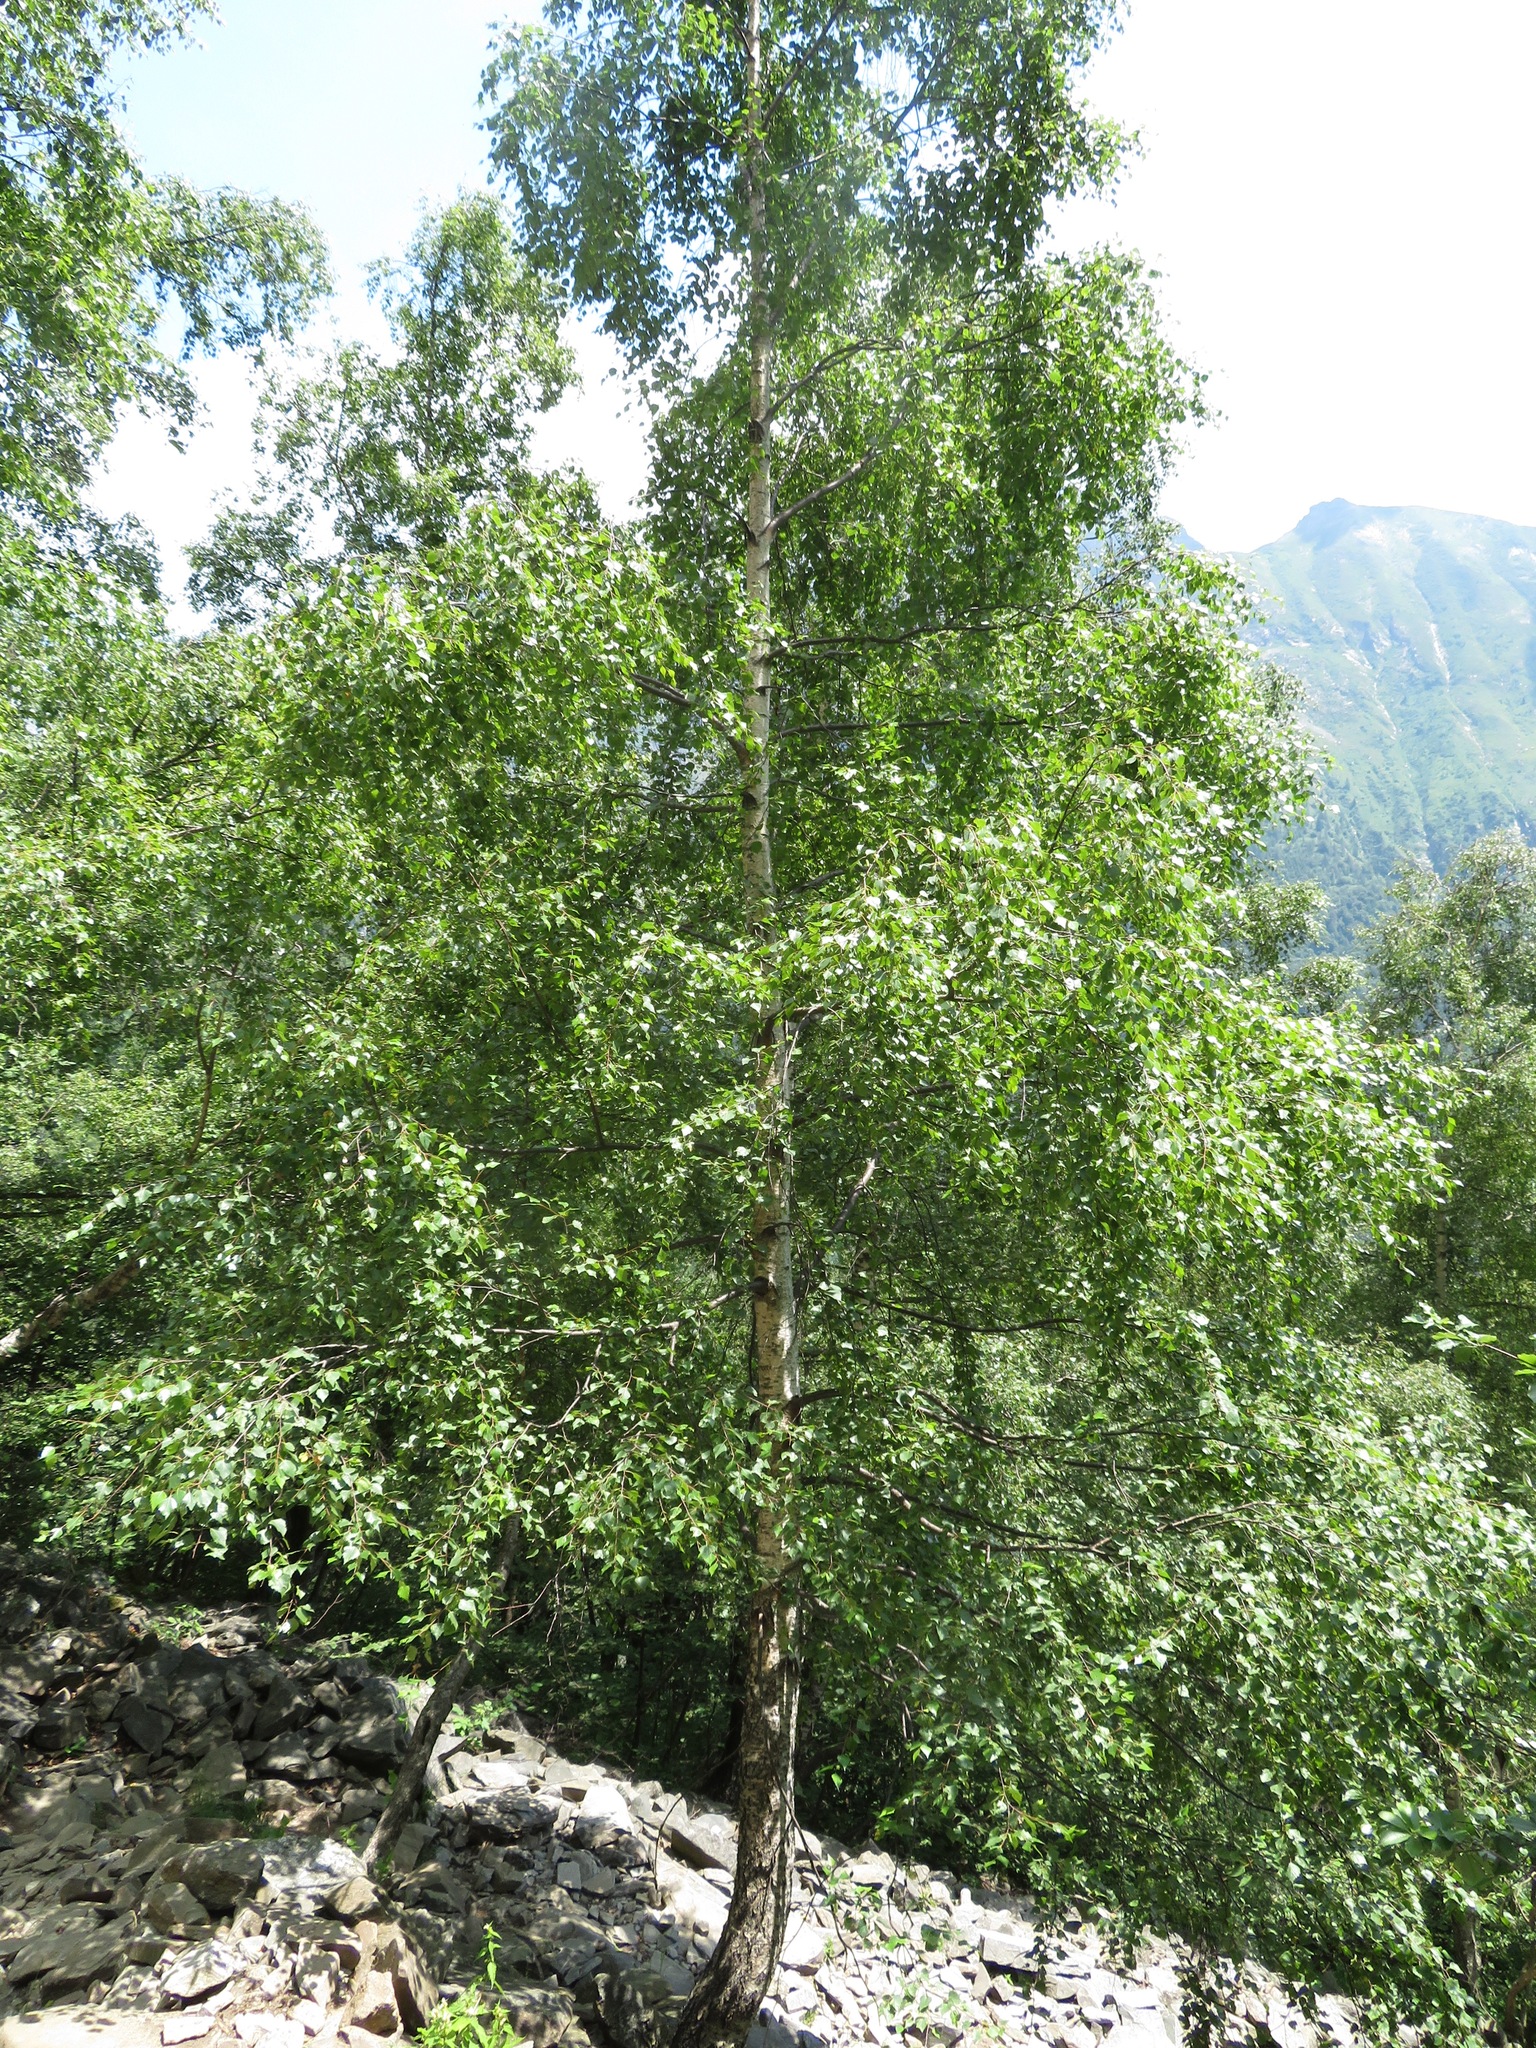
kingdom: Plantae
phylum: Tracheophyta
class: Magnoliopsida
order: Fagales
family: Betulaceae
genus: Betula
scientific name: Betula pendula
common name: Silver birch
